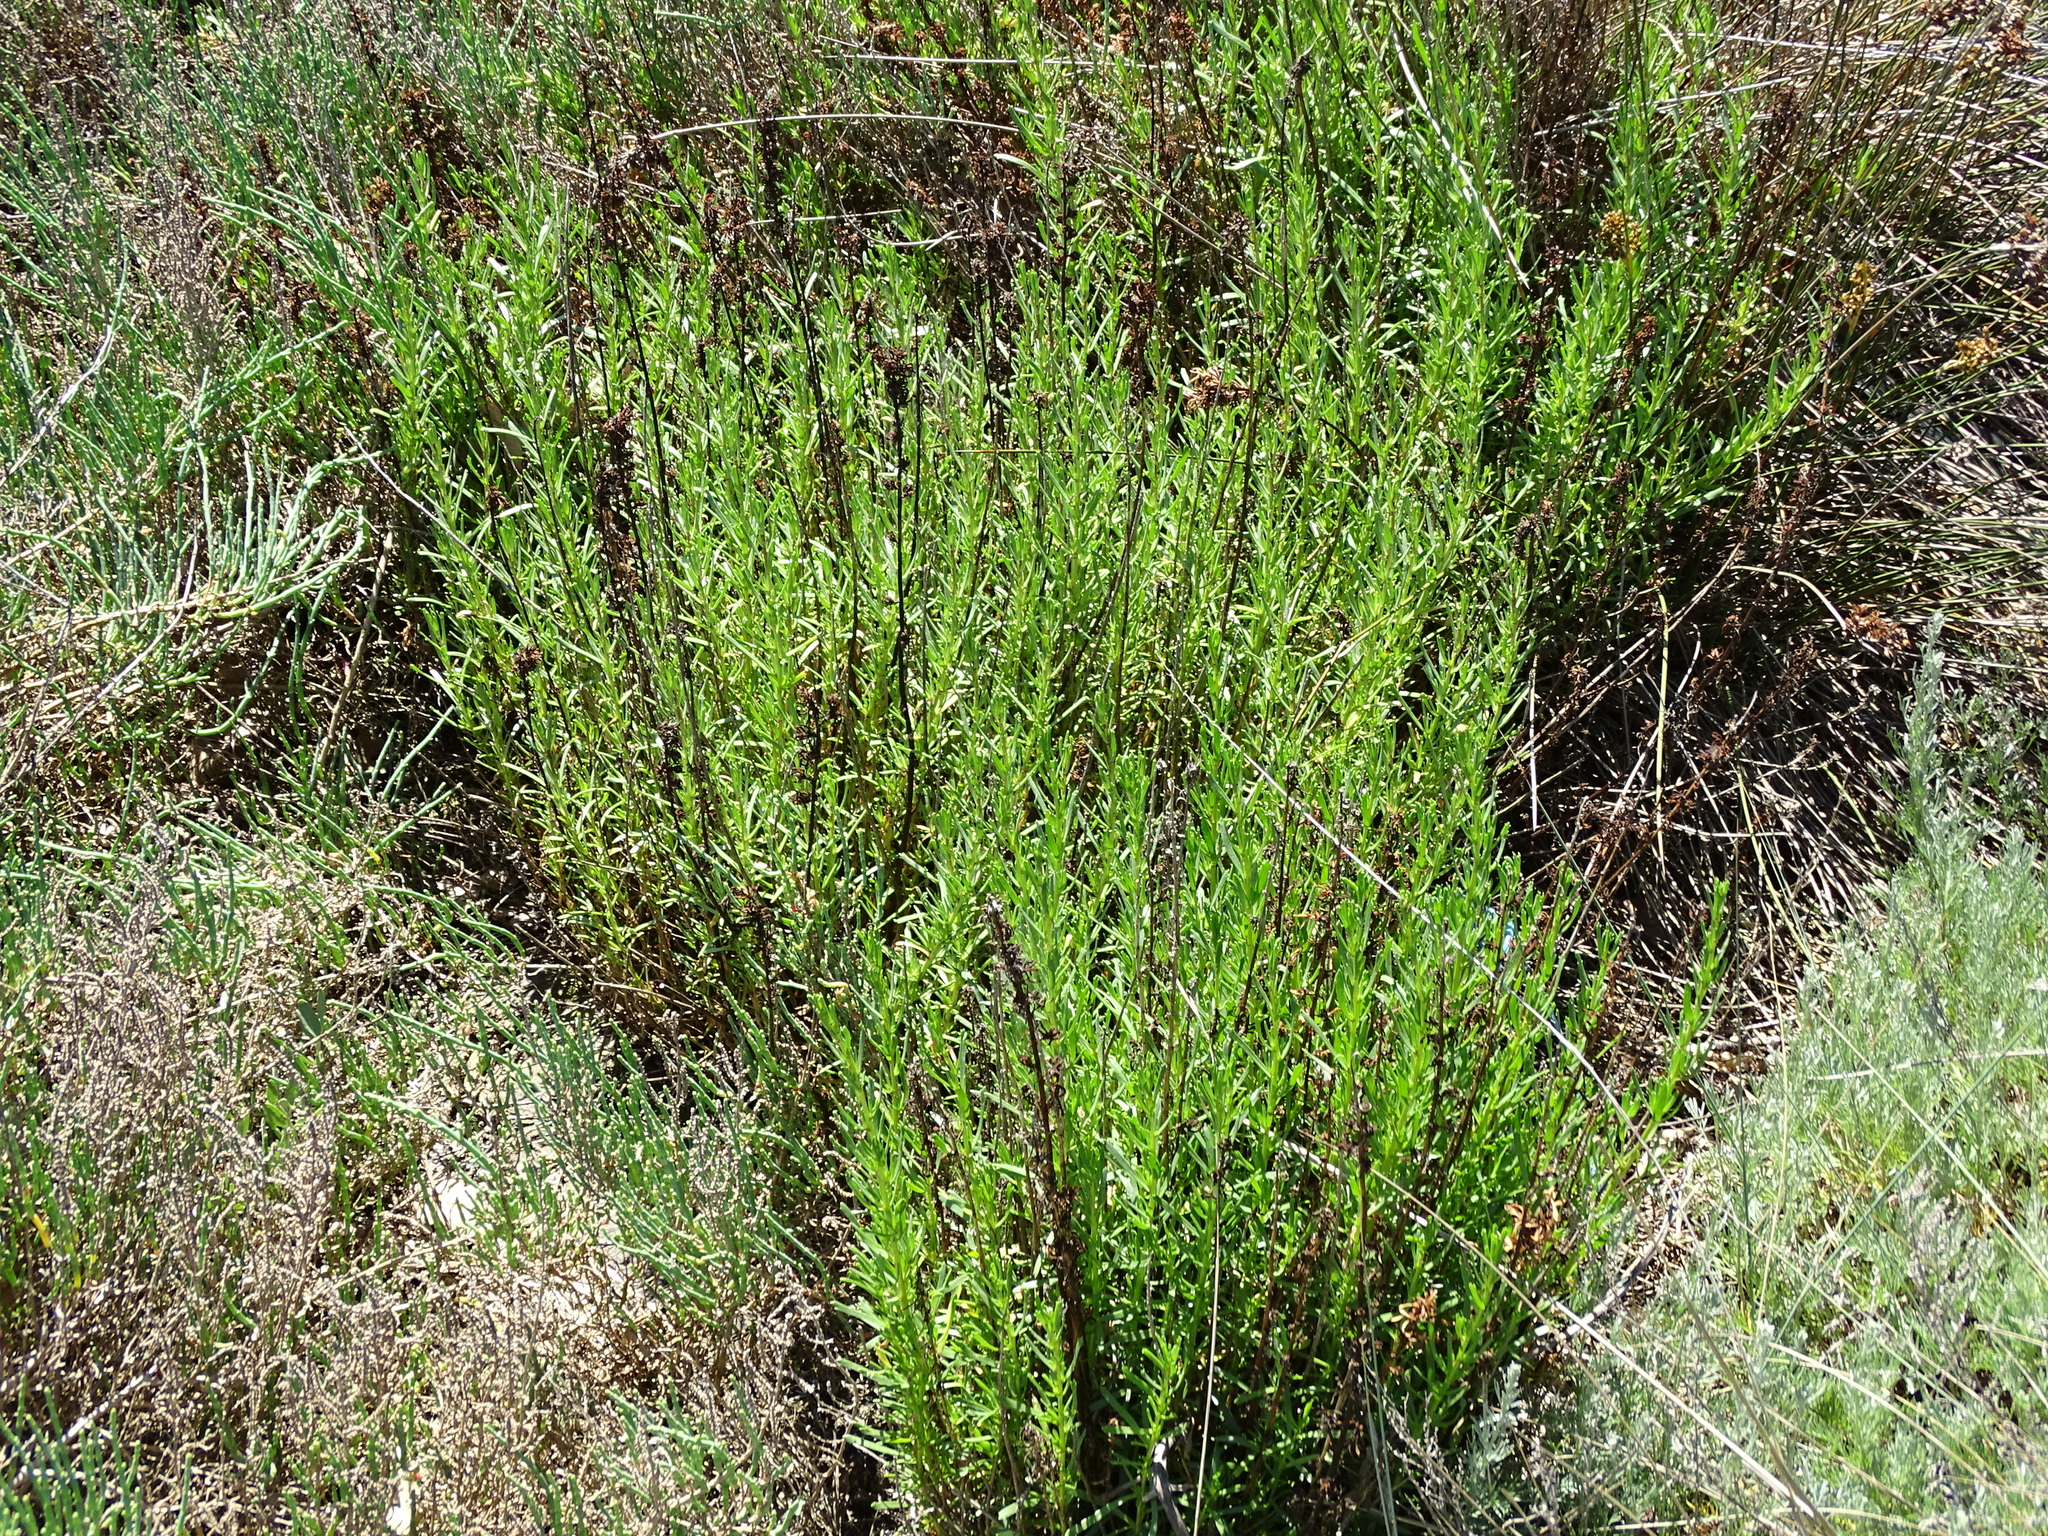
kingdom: Plantae
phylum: Tracheophyta
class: Magnoliopsida
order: Asterales
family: Asteraceae
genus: Limbarda
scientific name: Limbarda crithmoides
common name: Golden samphire
